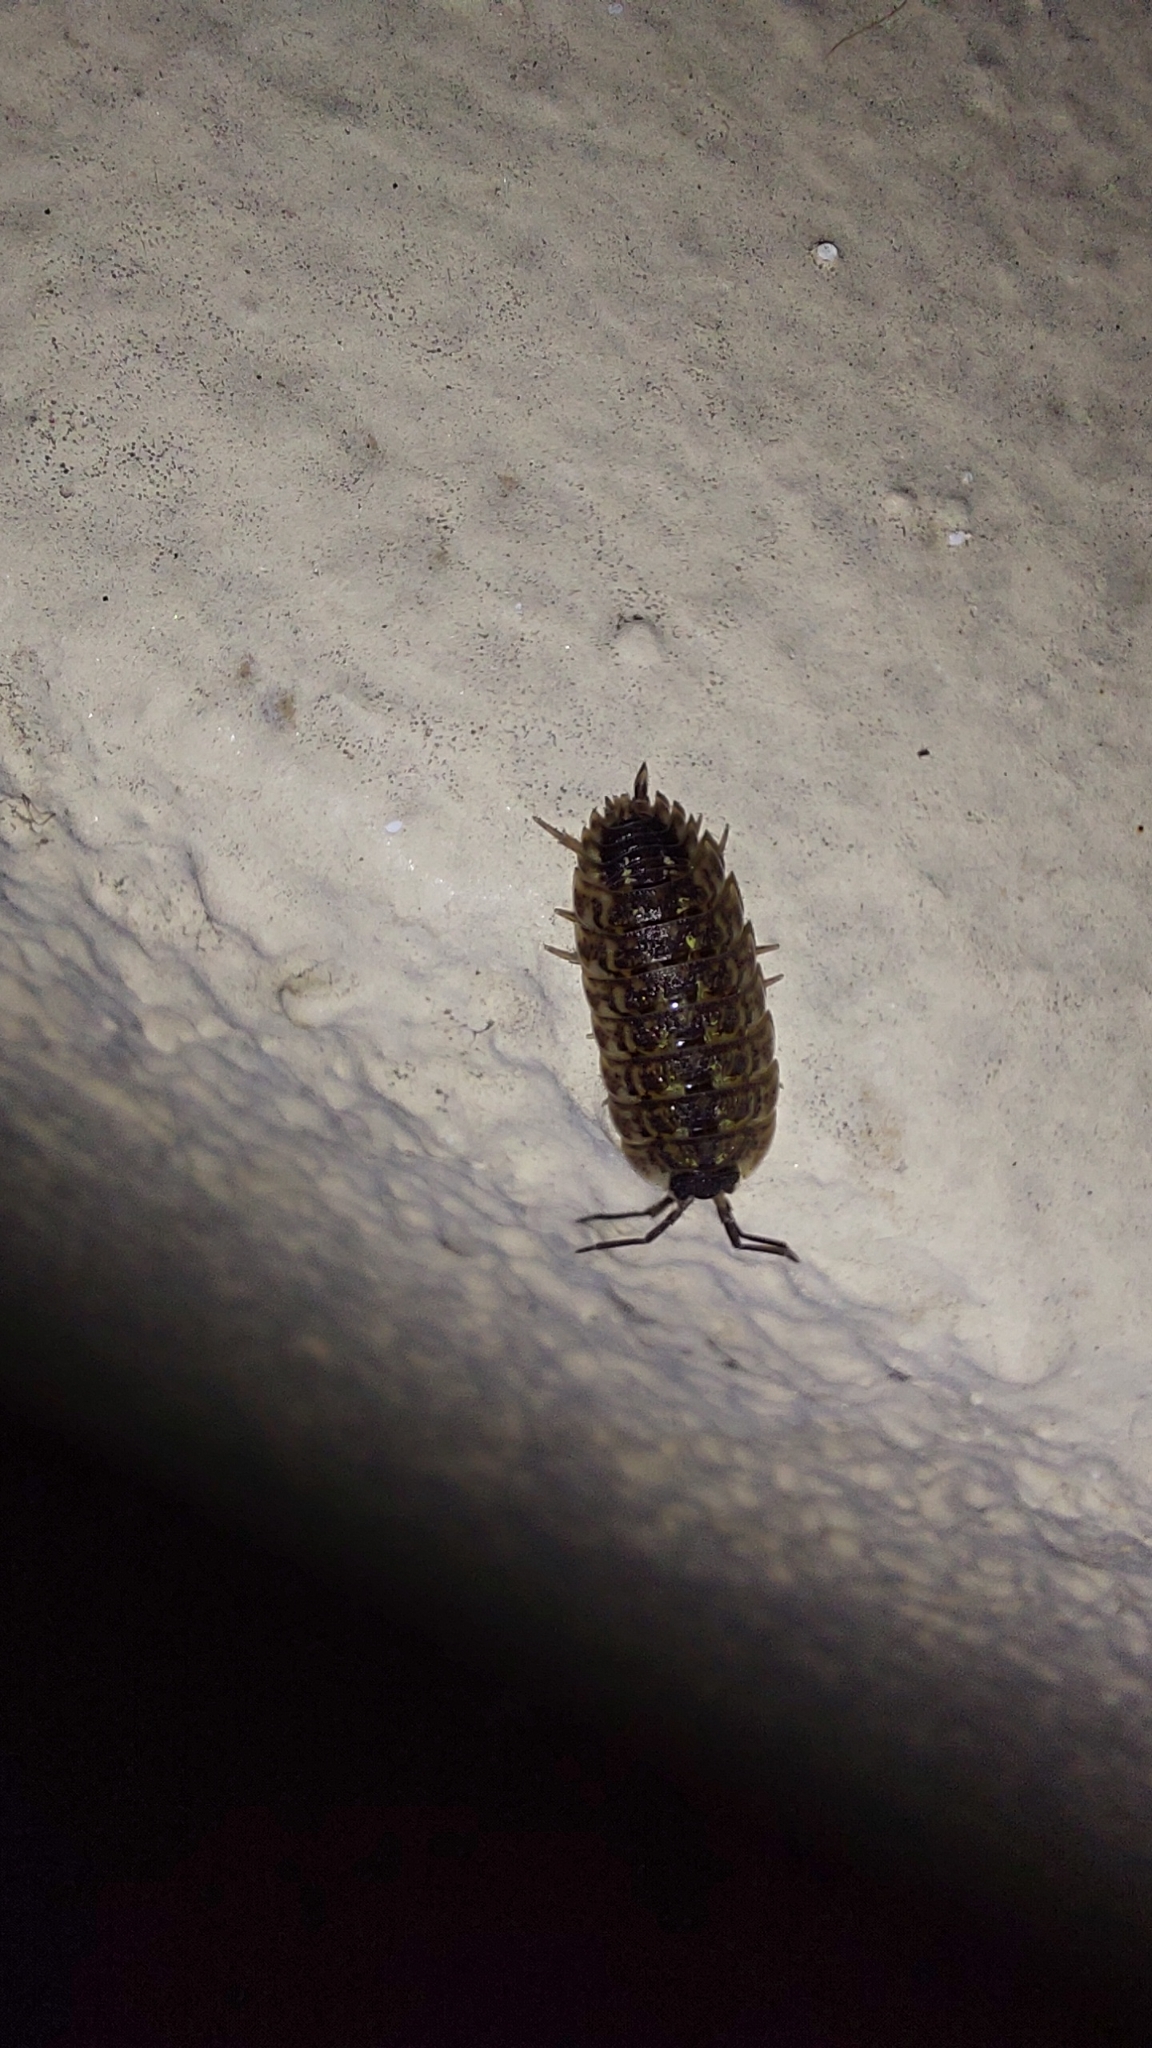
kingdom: Animalia
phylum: Arthropoda
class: Malacostraca
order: Isopoda
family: Porcellionidae
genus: Porcellio
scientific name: Porcellio spinicornis
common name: Painted woodlouse
